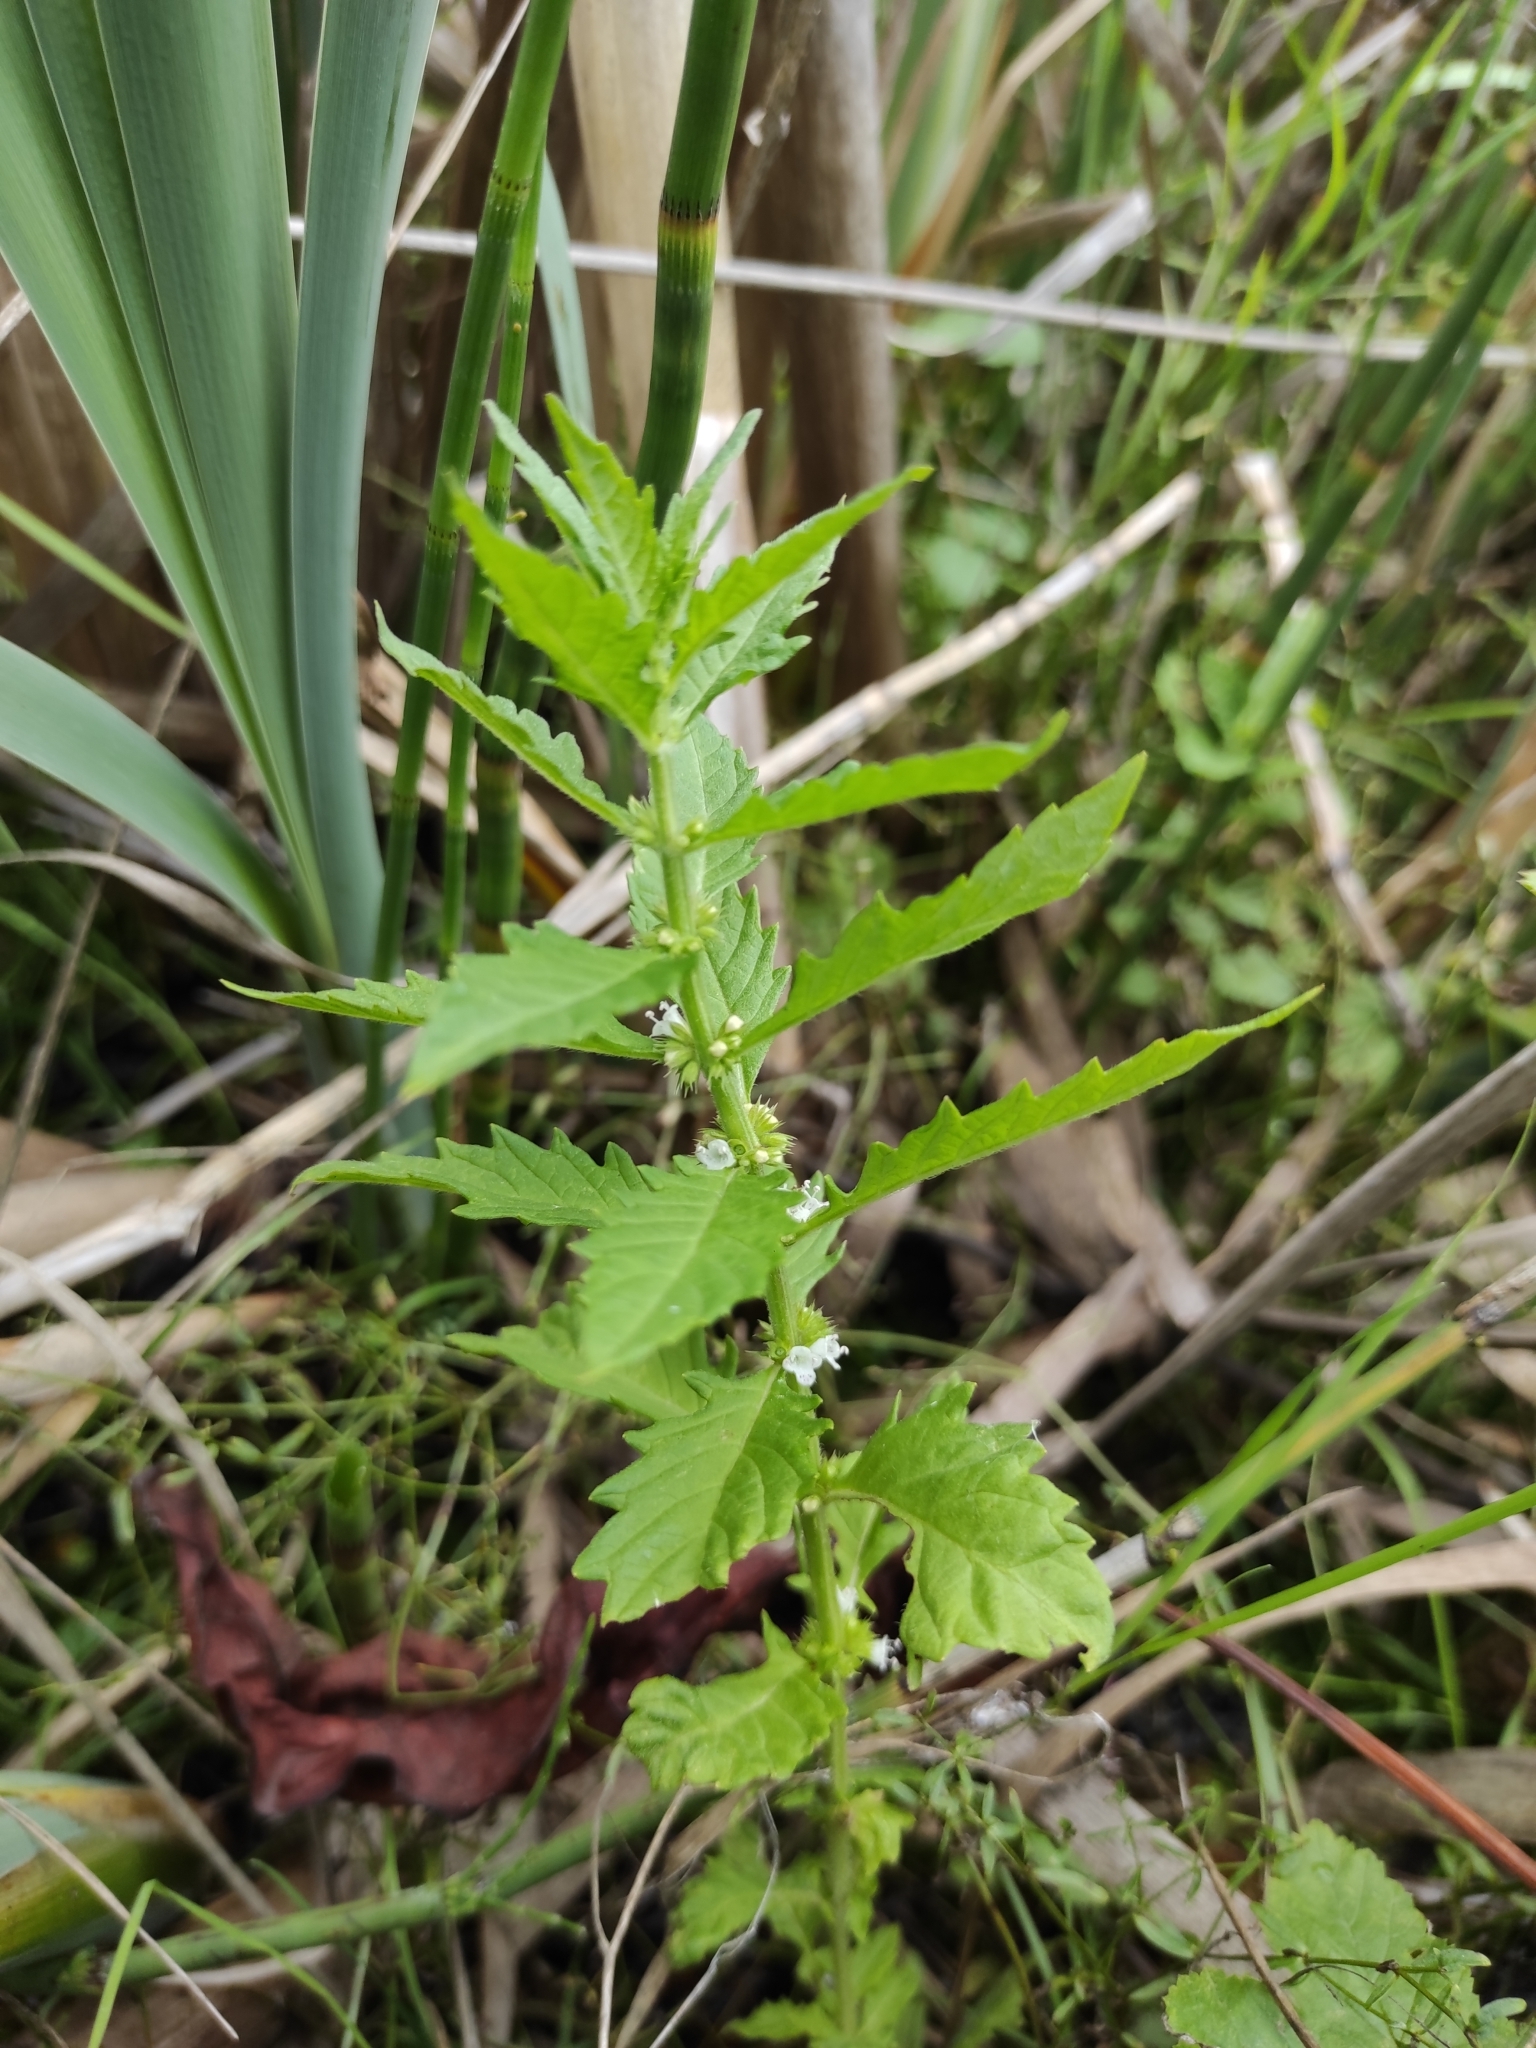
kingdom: Plantae
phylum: Tracheophyta
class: Magnoliopsida
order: Lamiales
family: Lamiaceae
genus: Lycopus
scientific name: Lycopus europaeus
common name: European bugleweed
